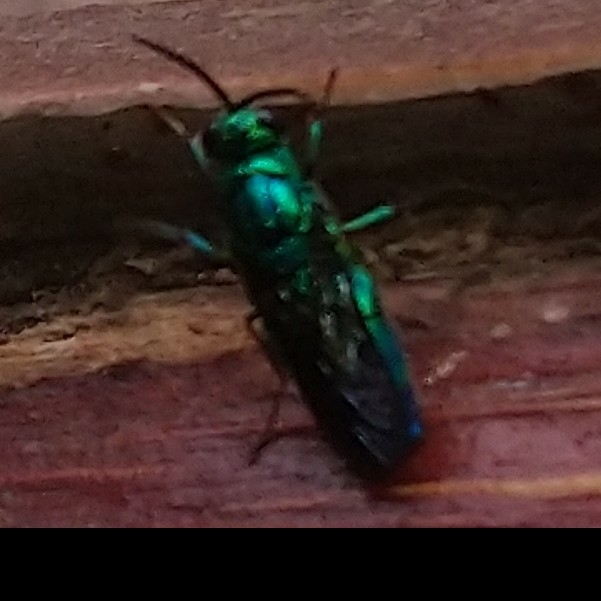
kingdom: Animalia
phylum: Arthropoda
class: Insecta
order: Hymenoptera
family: Chrysididae
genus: Chrysis
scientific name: Chrysis lincea
